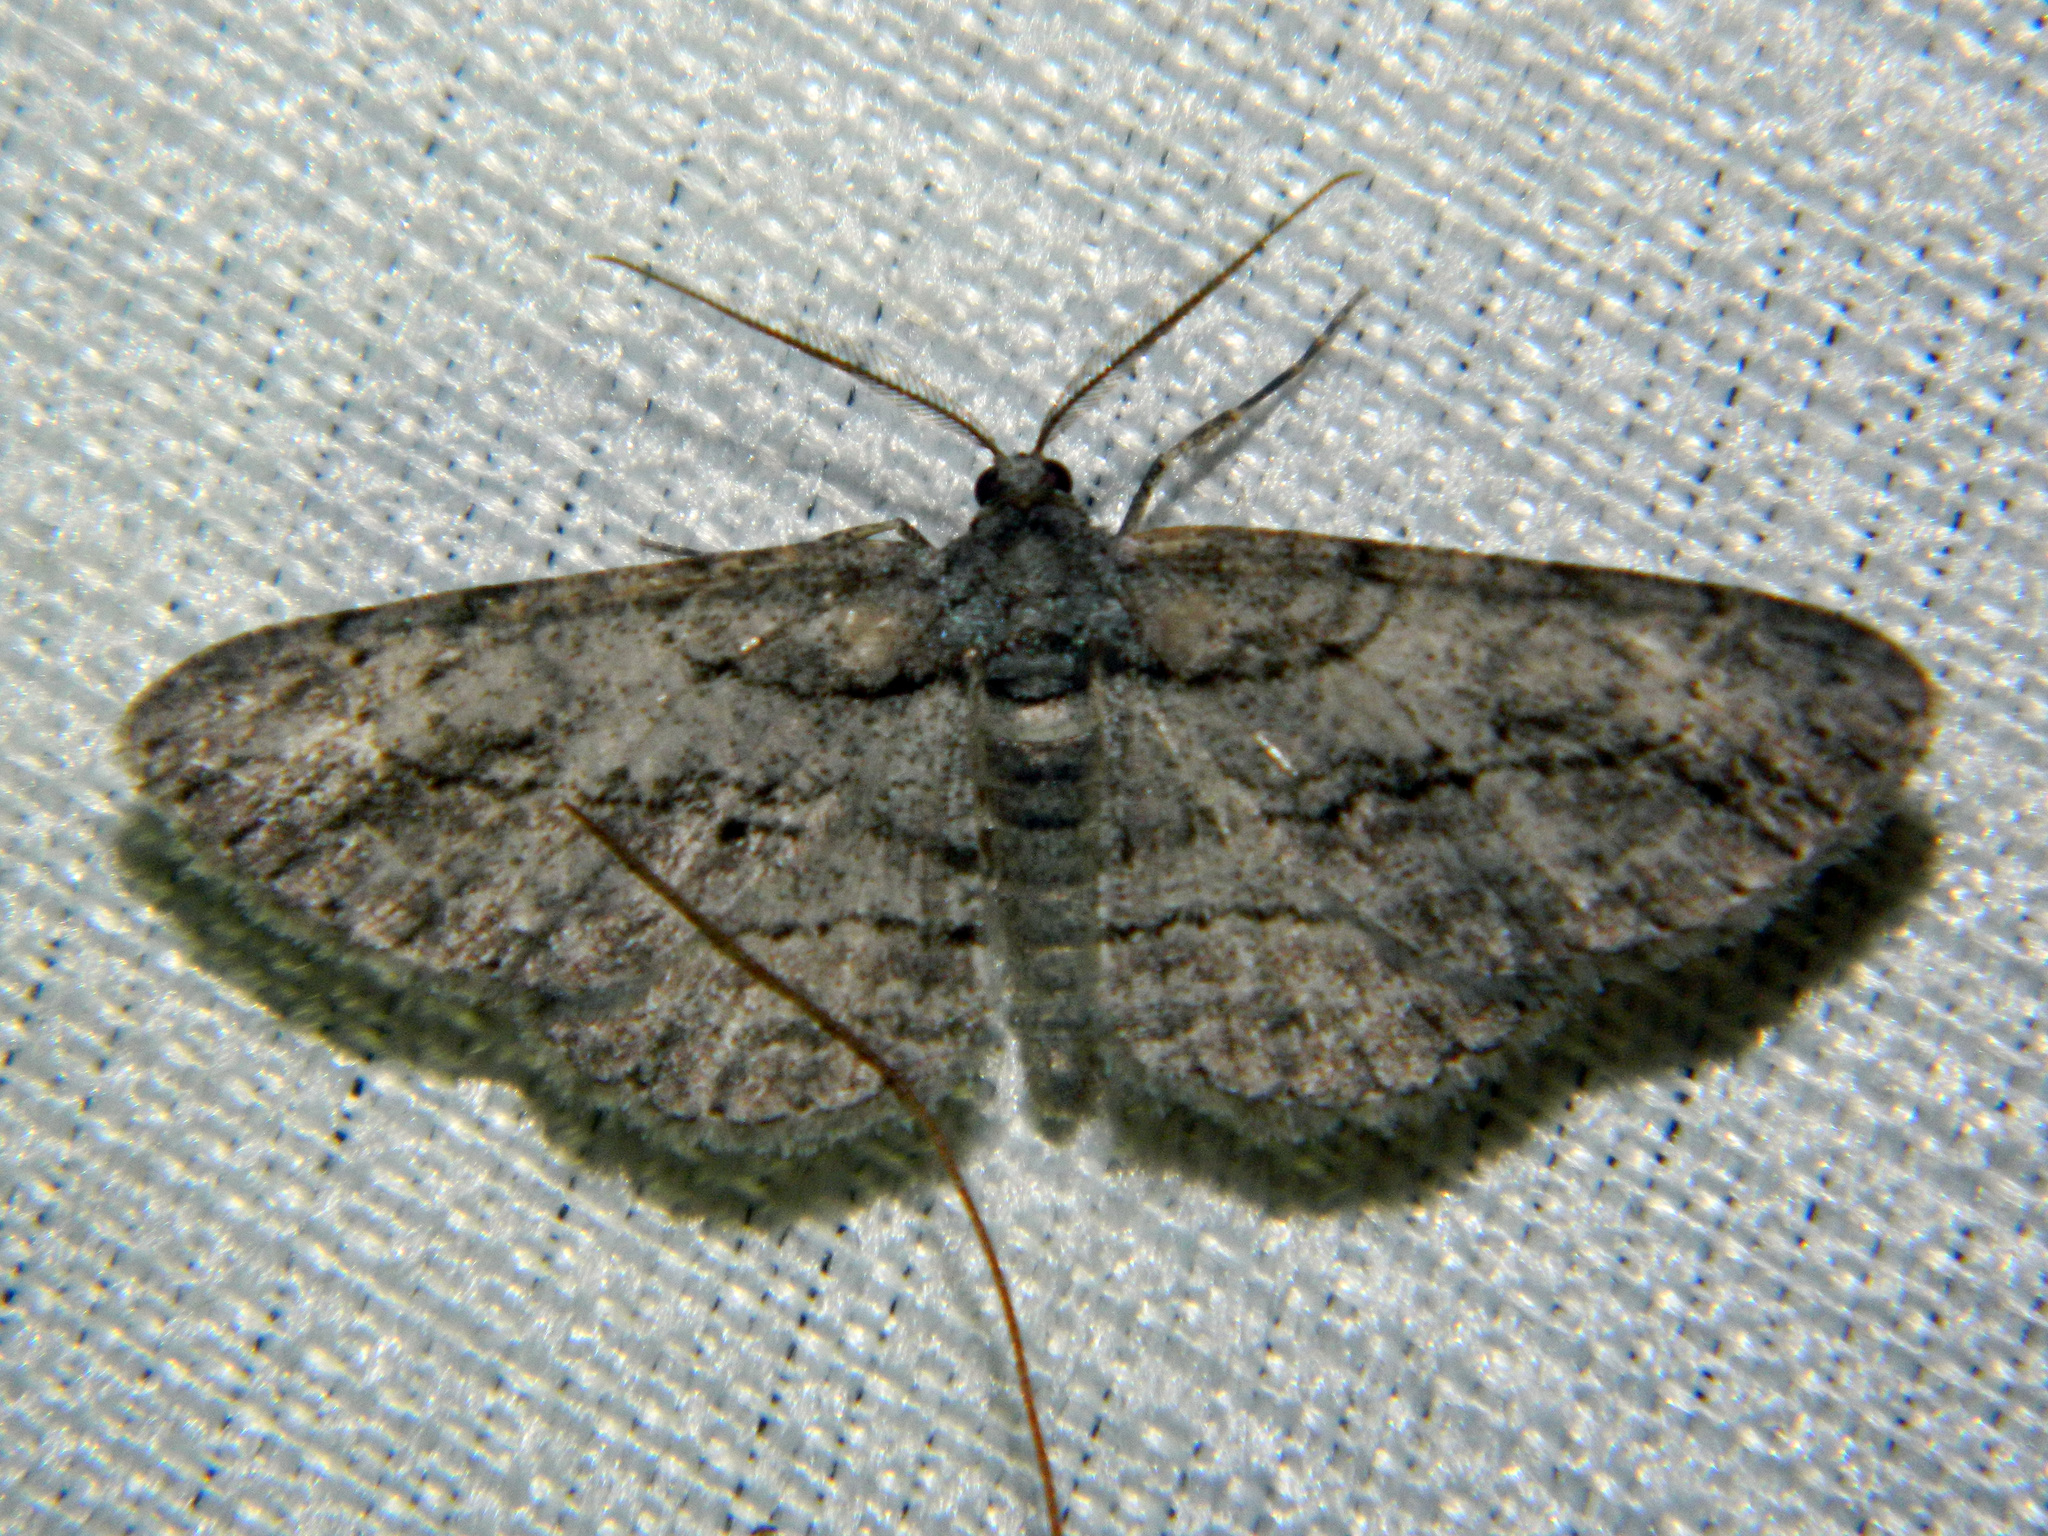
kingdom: Animalia
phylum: Arthropoda
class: Insecta
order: Lepidoptera
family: Geometridae
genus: Anavitrinella
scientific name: Anavitrinella pampinaria
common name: Common gray
